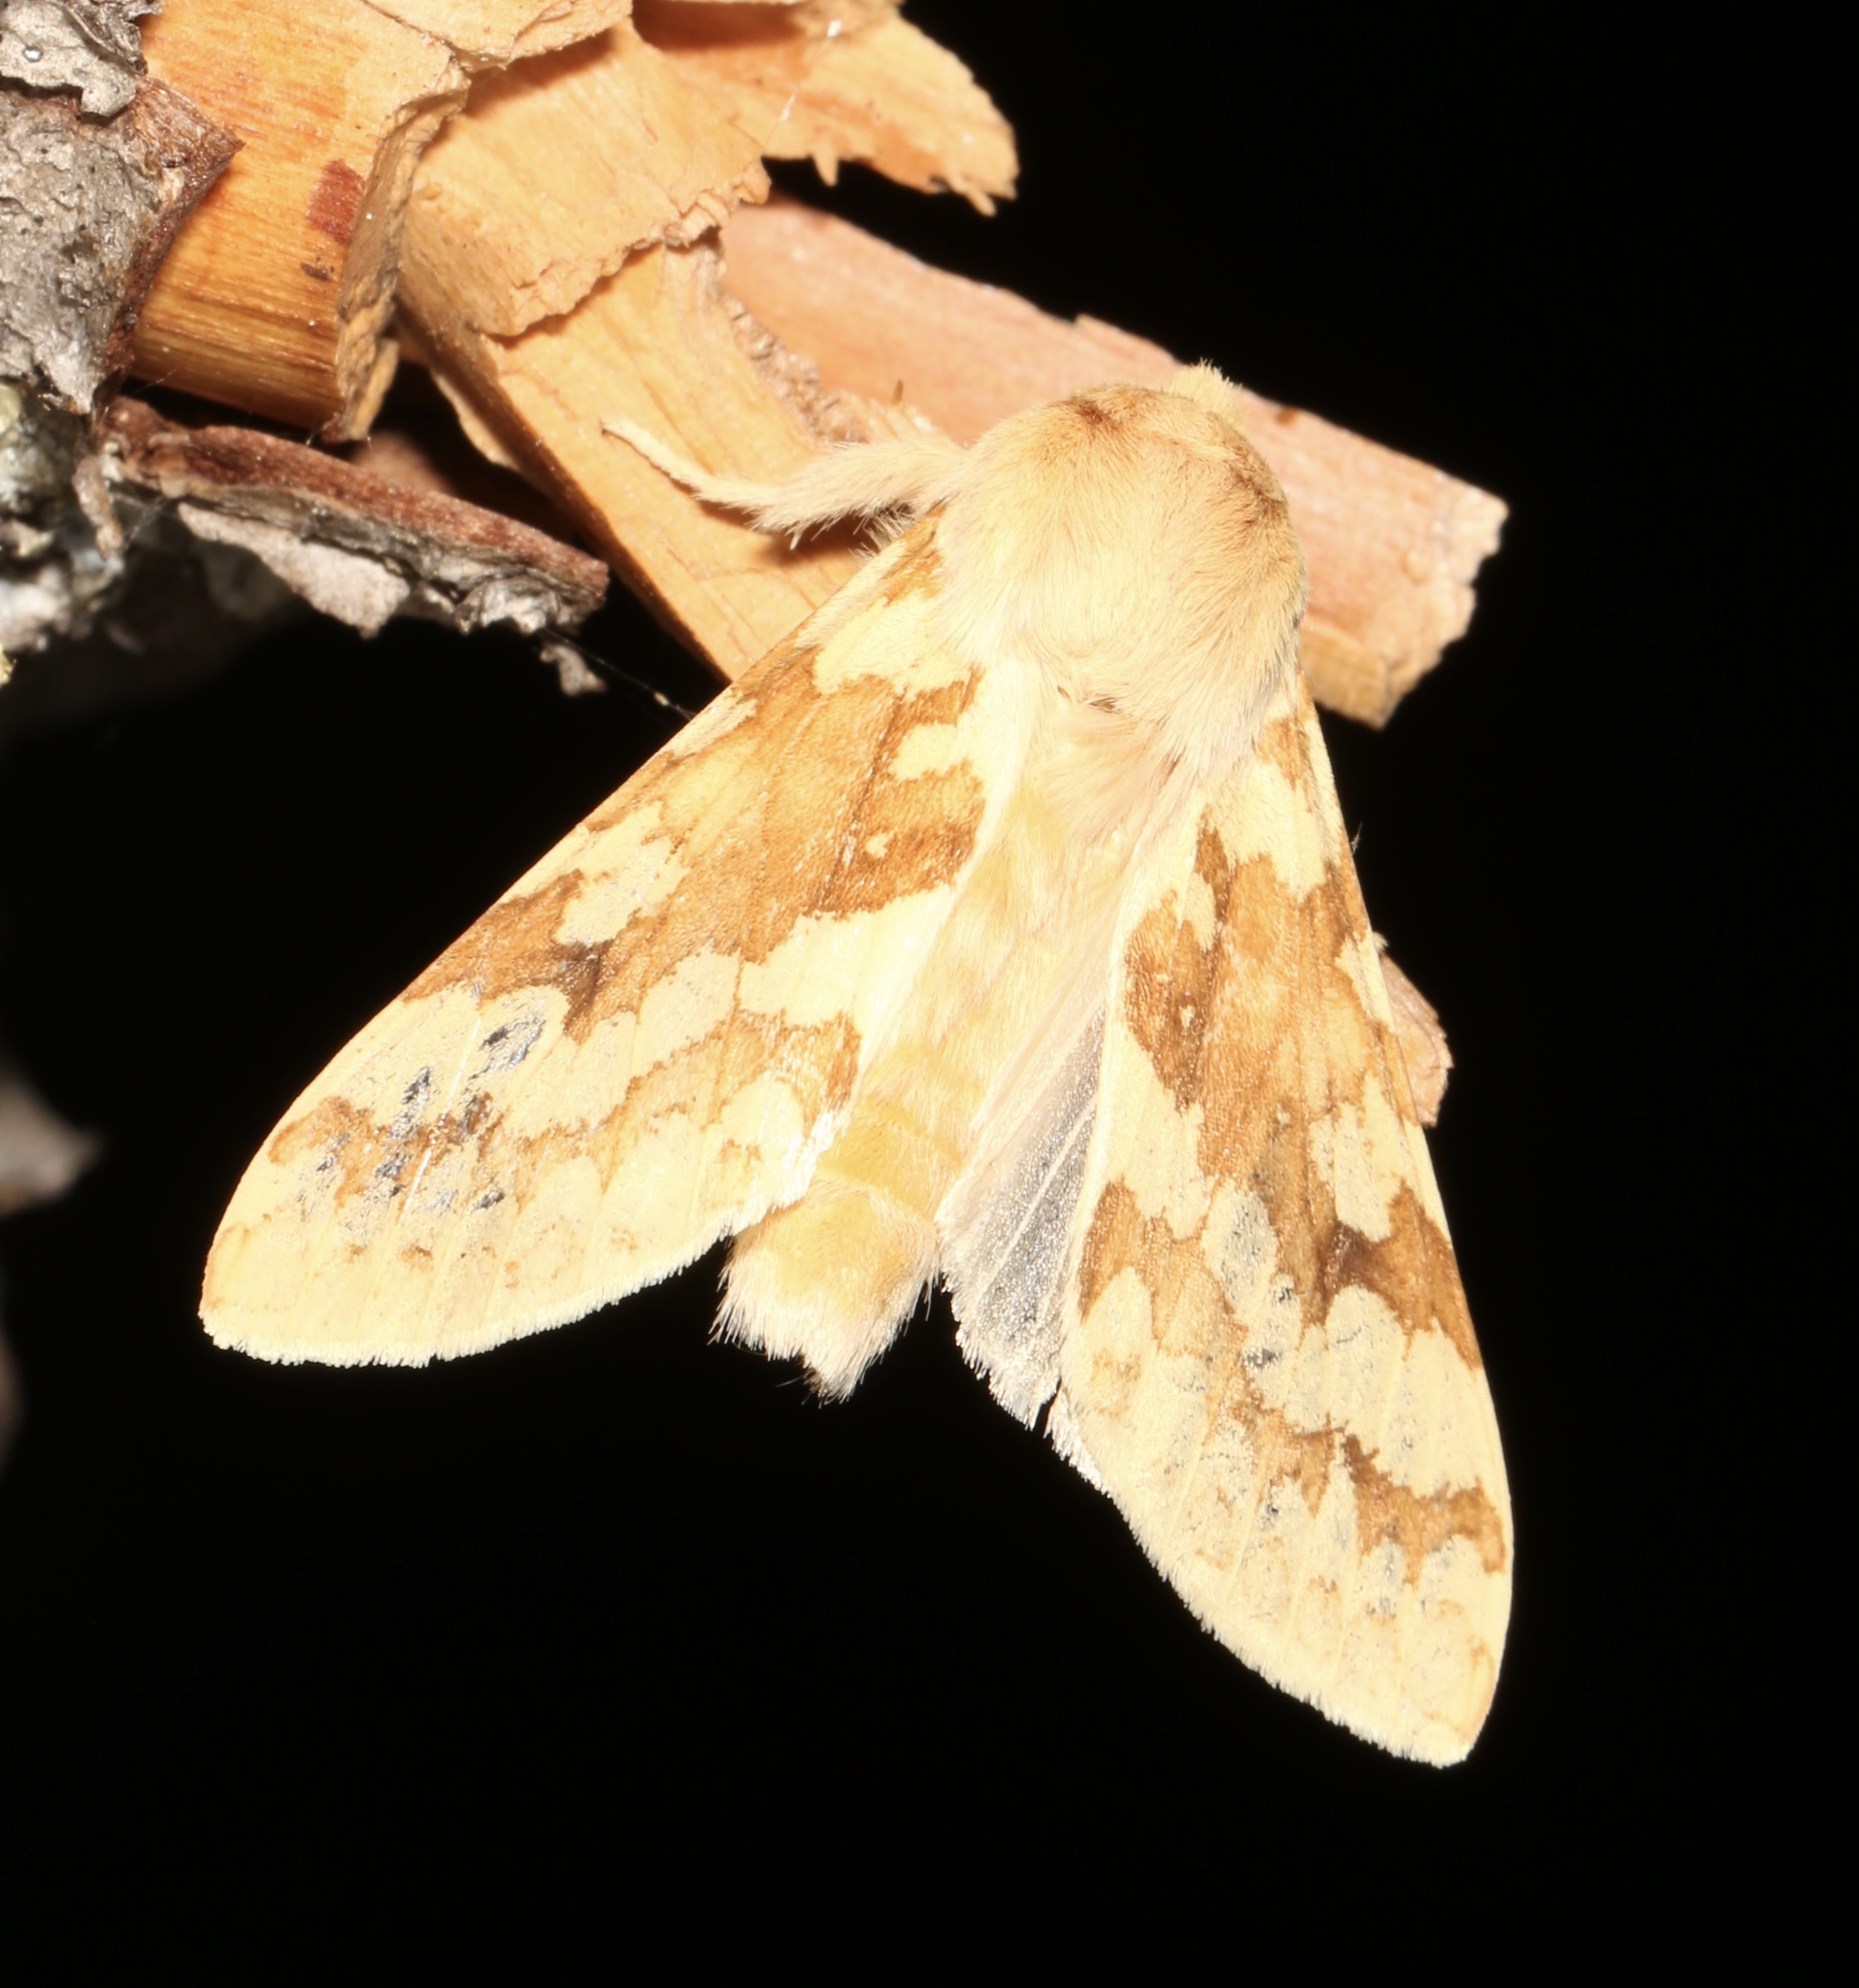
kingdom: Animalia
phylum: Arthropoda
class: Insecta
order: Lepidoptera
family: Erebidae
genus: Lophocampa
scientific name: Lophocampa maculata
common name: Spotted tussock moth
